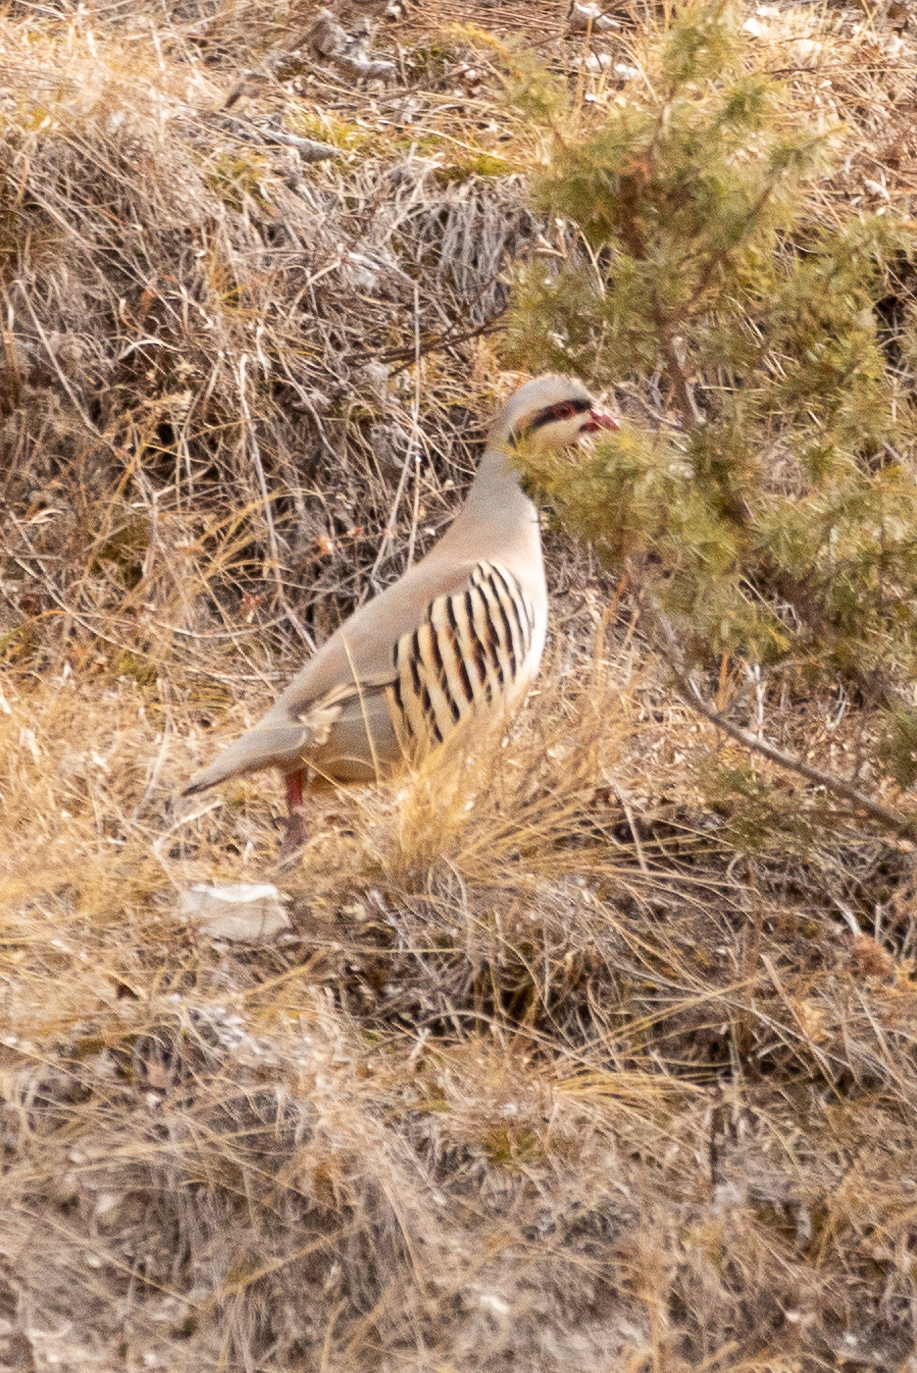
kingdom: Animalia
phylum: Chordata
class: Aves
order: Galliformes
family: Phasianidae
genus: Alectoris
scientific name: Alectoris chukar
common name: Chukar
